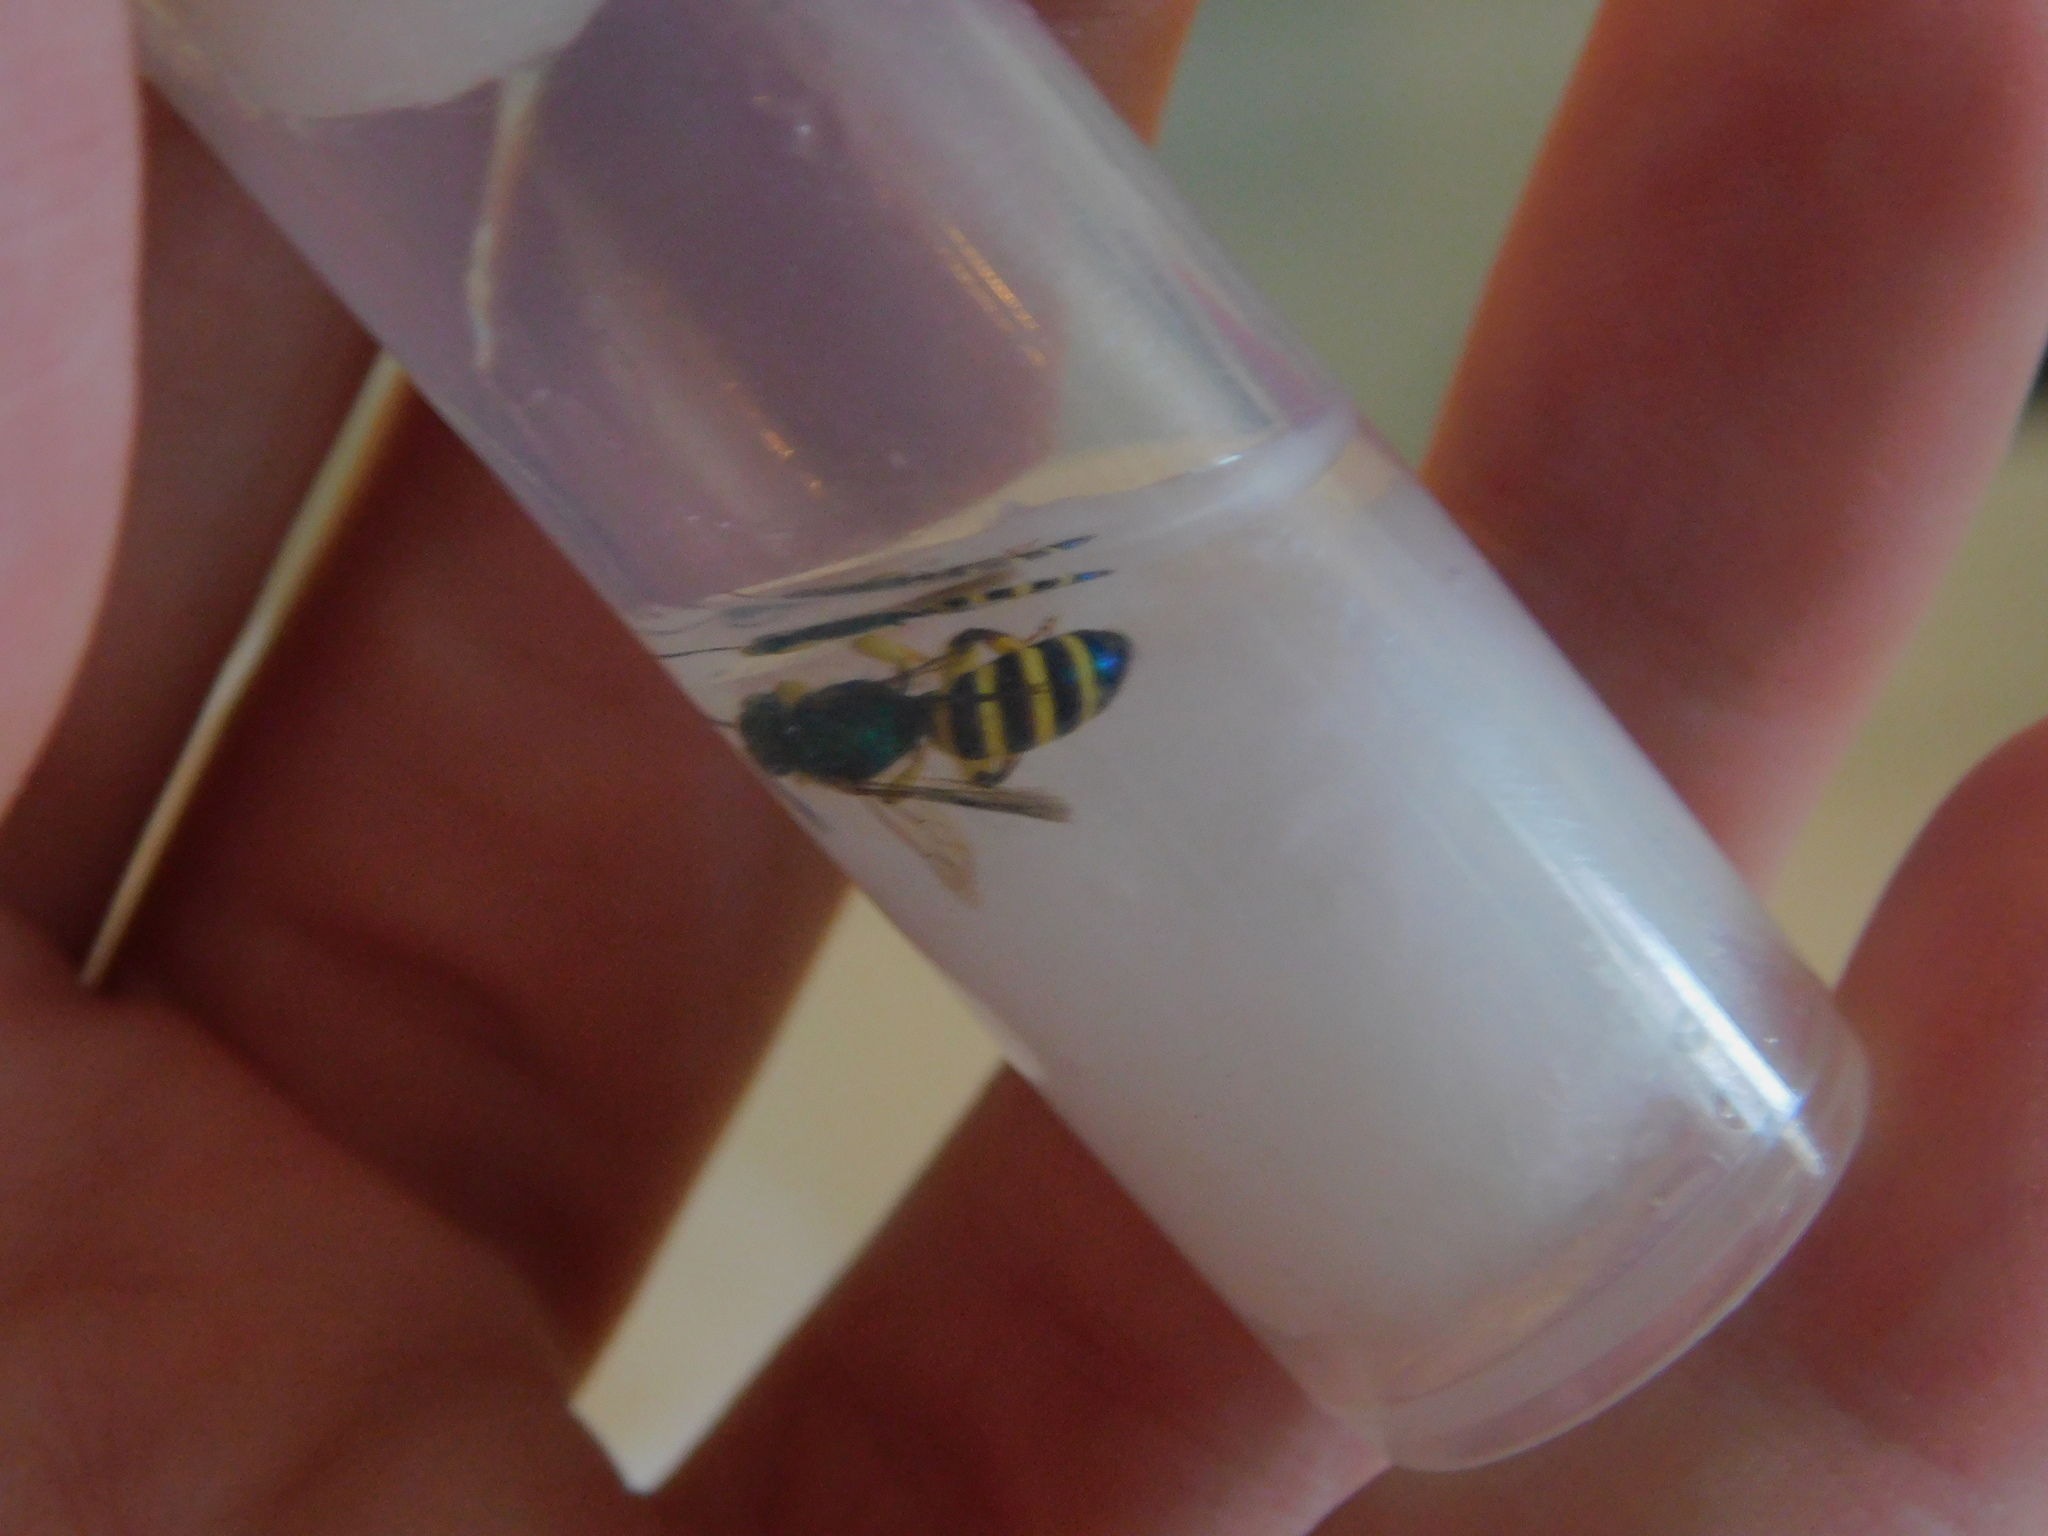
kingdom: Animalia
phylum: Arthropoda
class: Insecta
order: Hymenoptera
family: Halictidae
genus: Agapostemon
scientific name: Agapostemon poeyi
